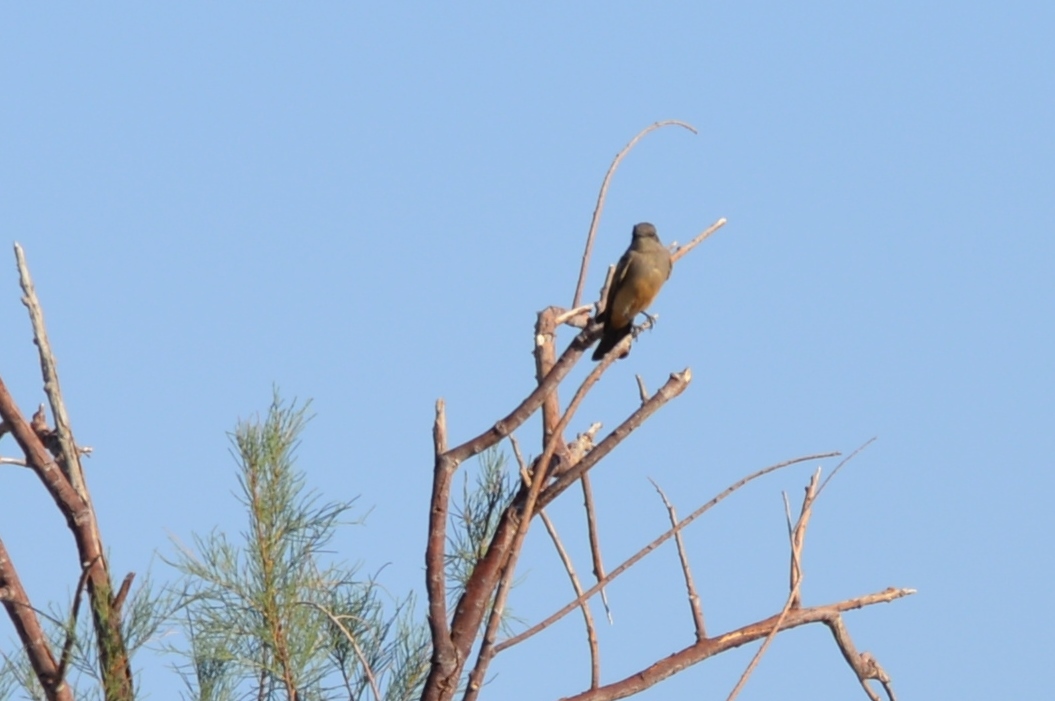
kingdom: Animalia
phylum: Chordata
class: Aves
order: Passeriformes
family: Tyrannidae
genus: Sayornis
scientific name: Sayornis saya
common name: Say's phoebe
